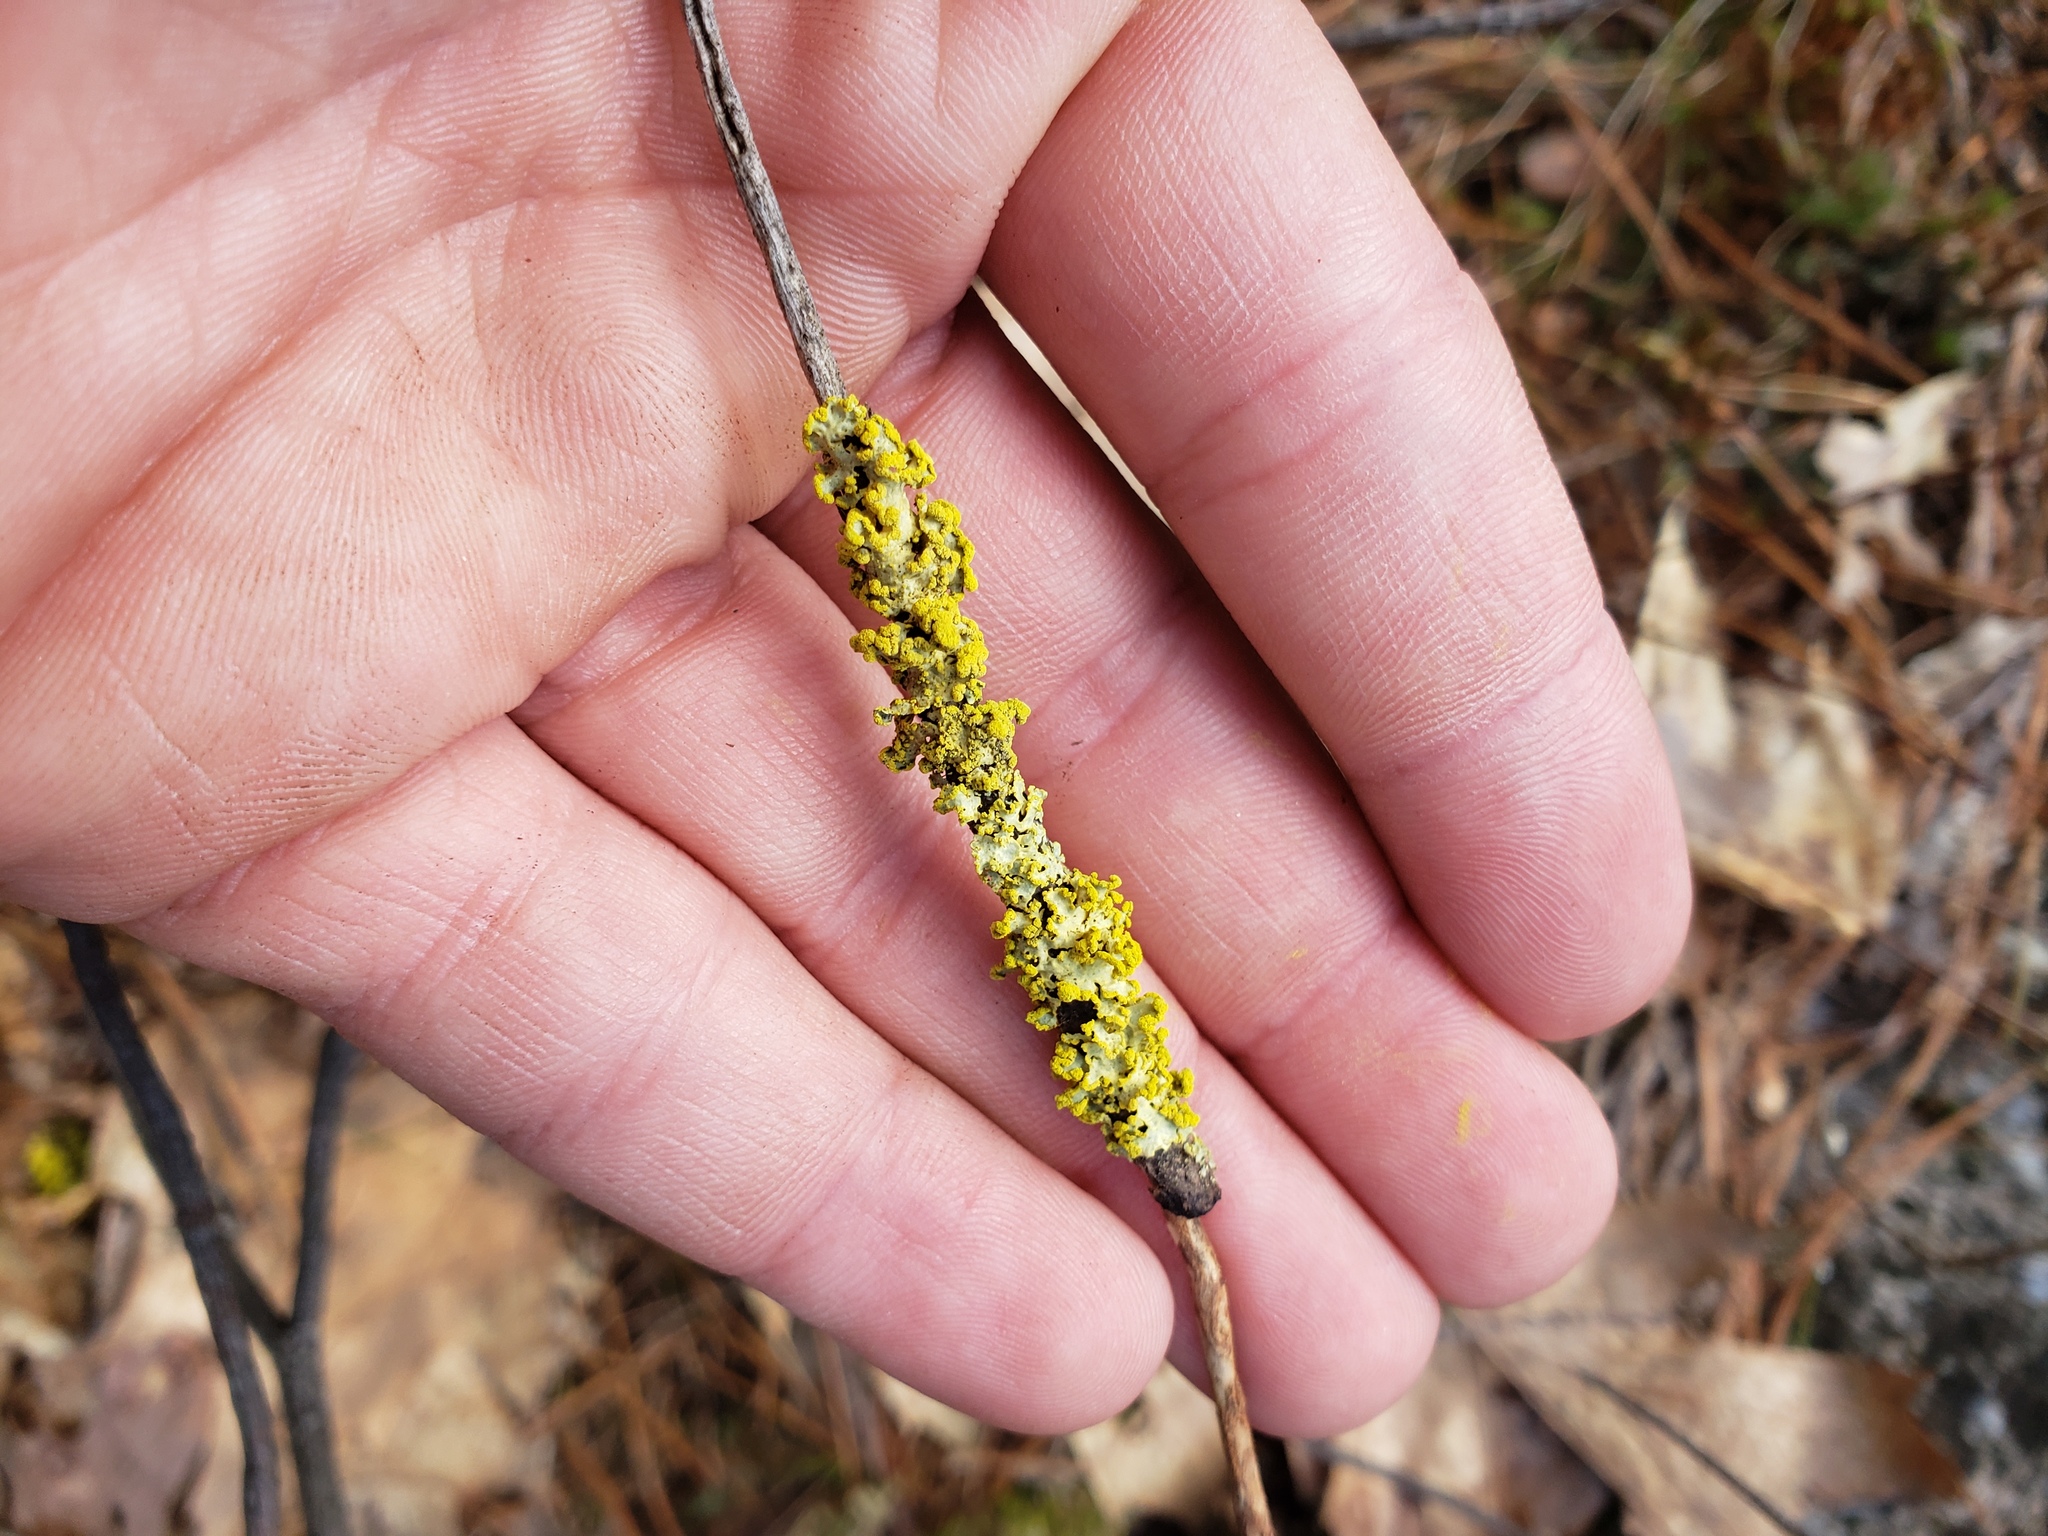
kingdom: Fungi
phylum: Ascomycota
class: Lecanoromycetes
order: Lecanorales
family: Parmeliaceae
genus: Vulpicida
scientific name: Vulpicida pinastri
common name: Powdered sunshine lichen
